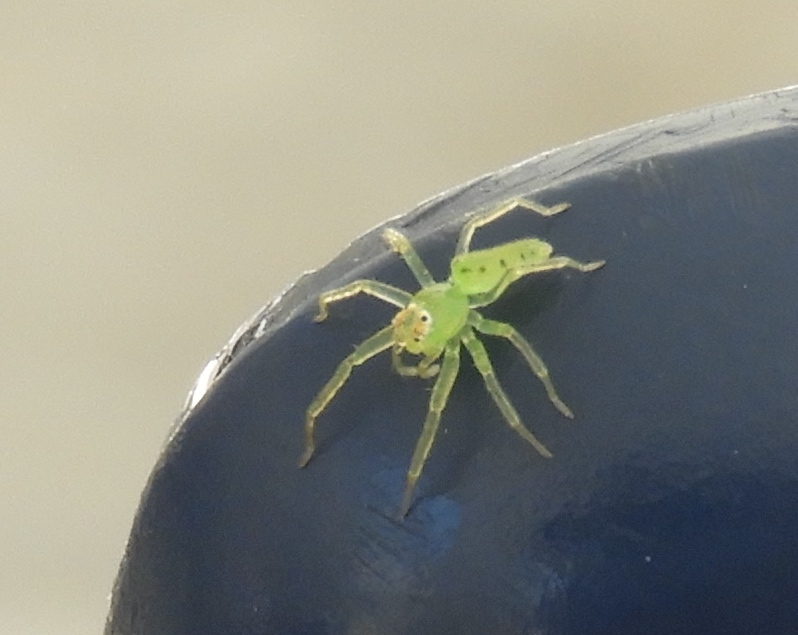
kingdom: Animalia
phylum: Arthropoda
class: Arachnida
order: Araneae
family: Salticidae
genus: Lyssomanes
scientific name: Lyssomanes
